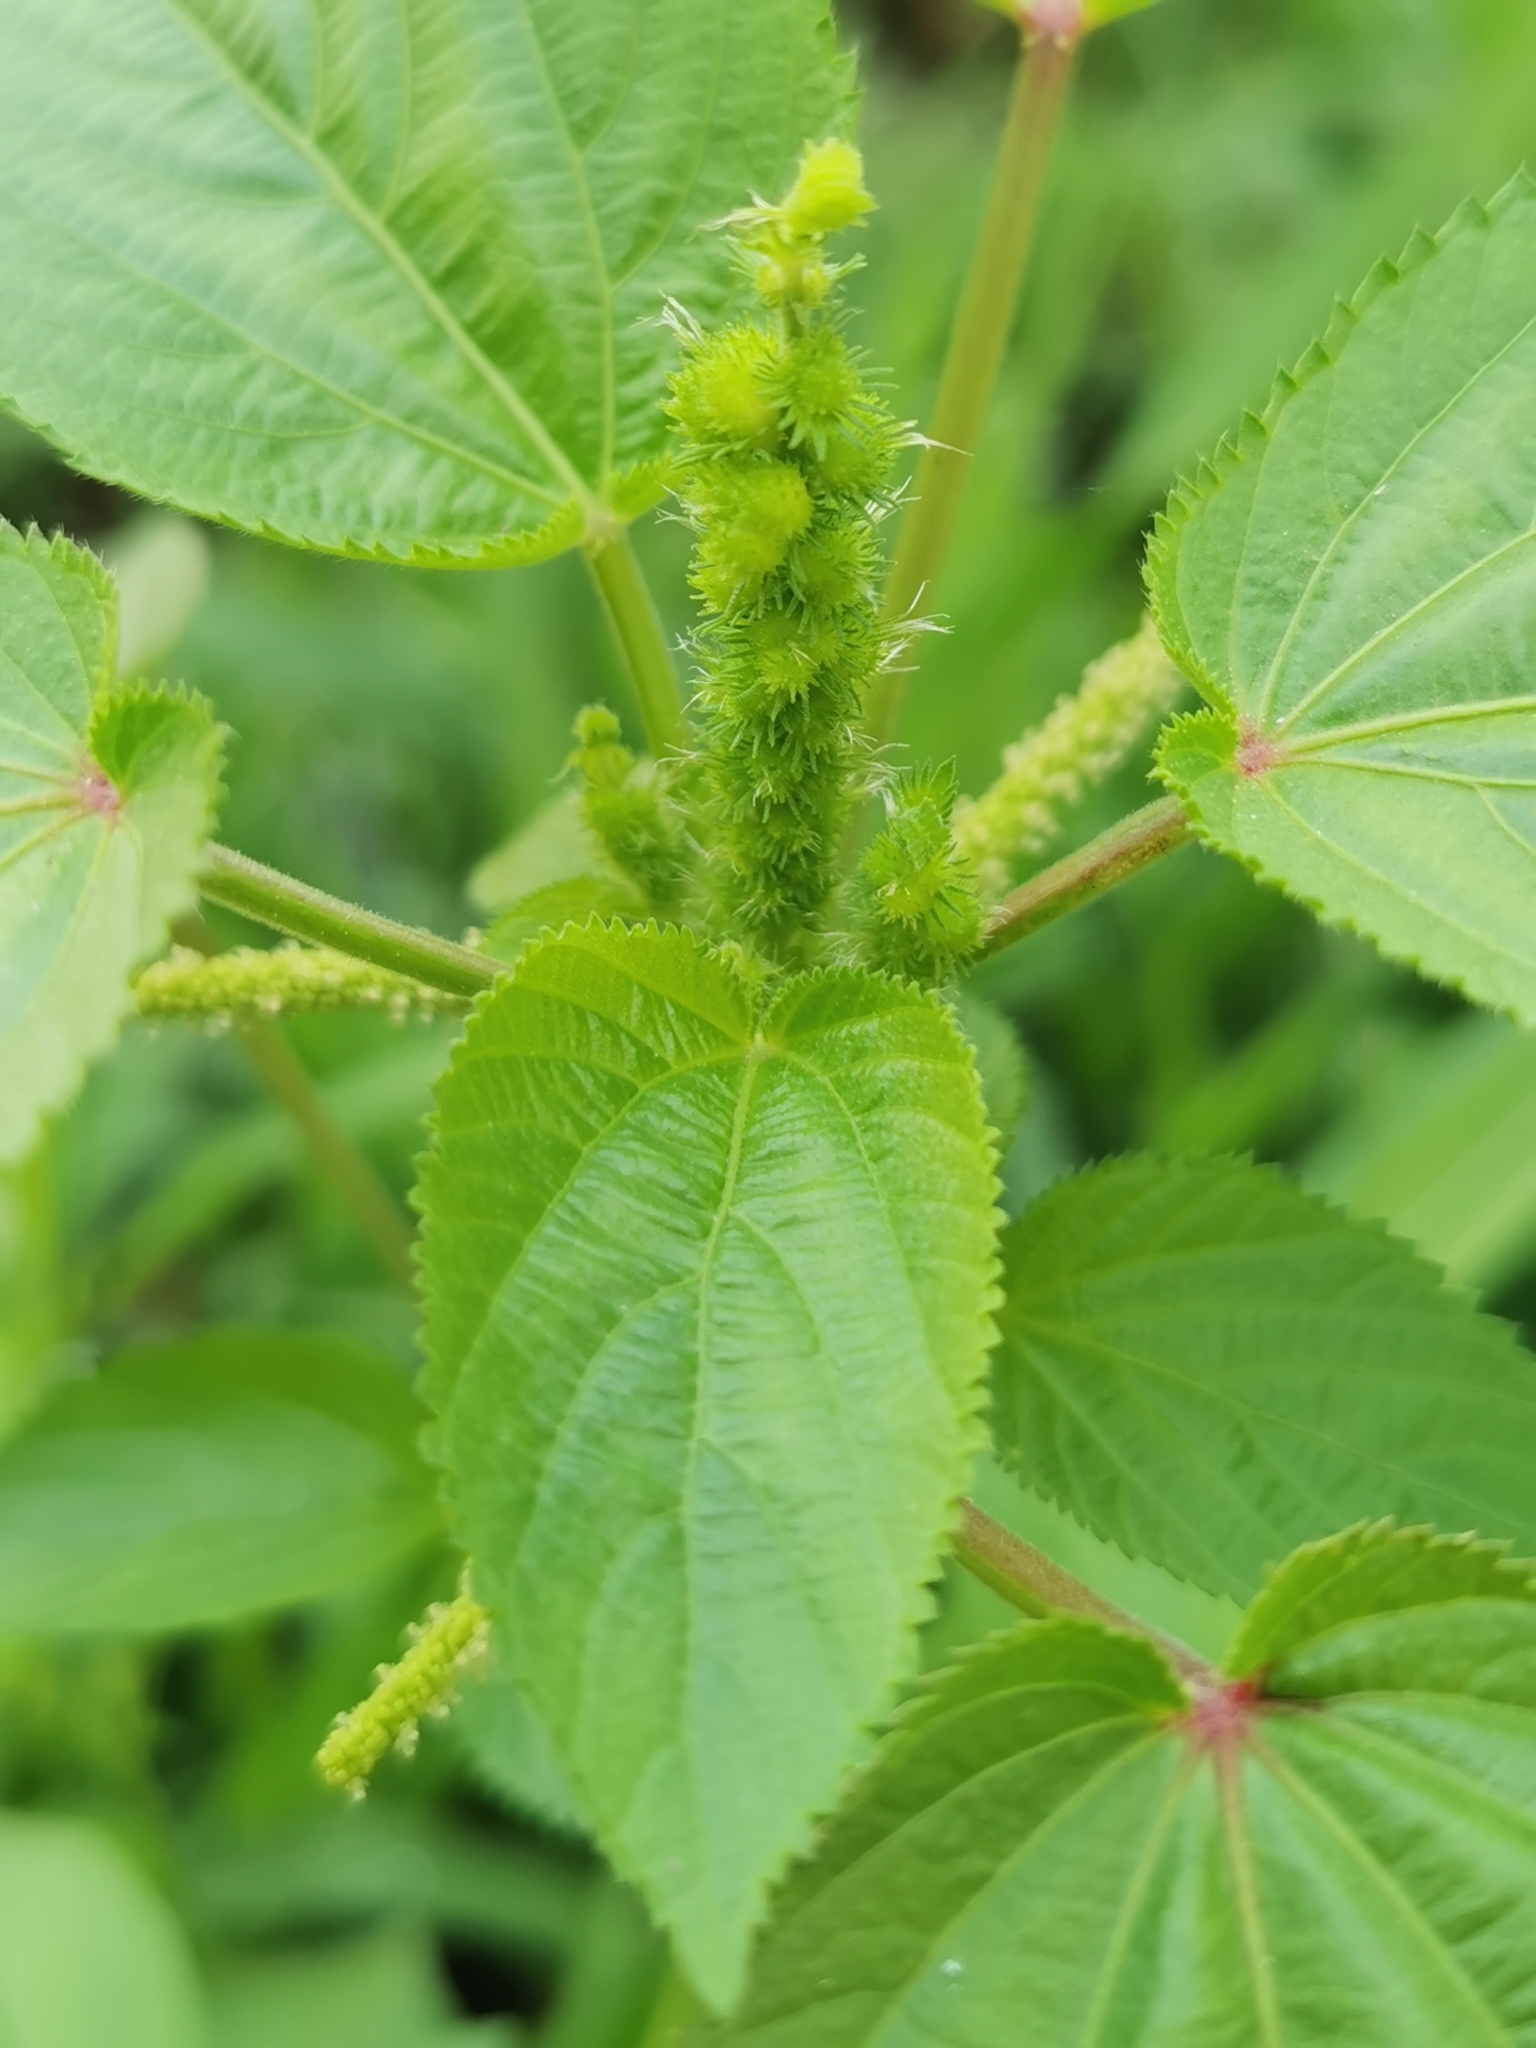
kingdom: Plantae
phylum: Tracheophyta
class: Magnoliopsida
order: Malpighiales
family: Euphorbiaceae
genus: Acalypha
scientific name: Acalypha ostryifolia
